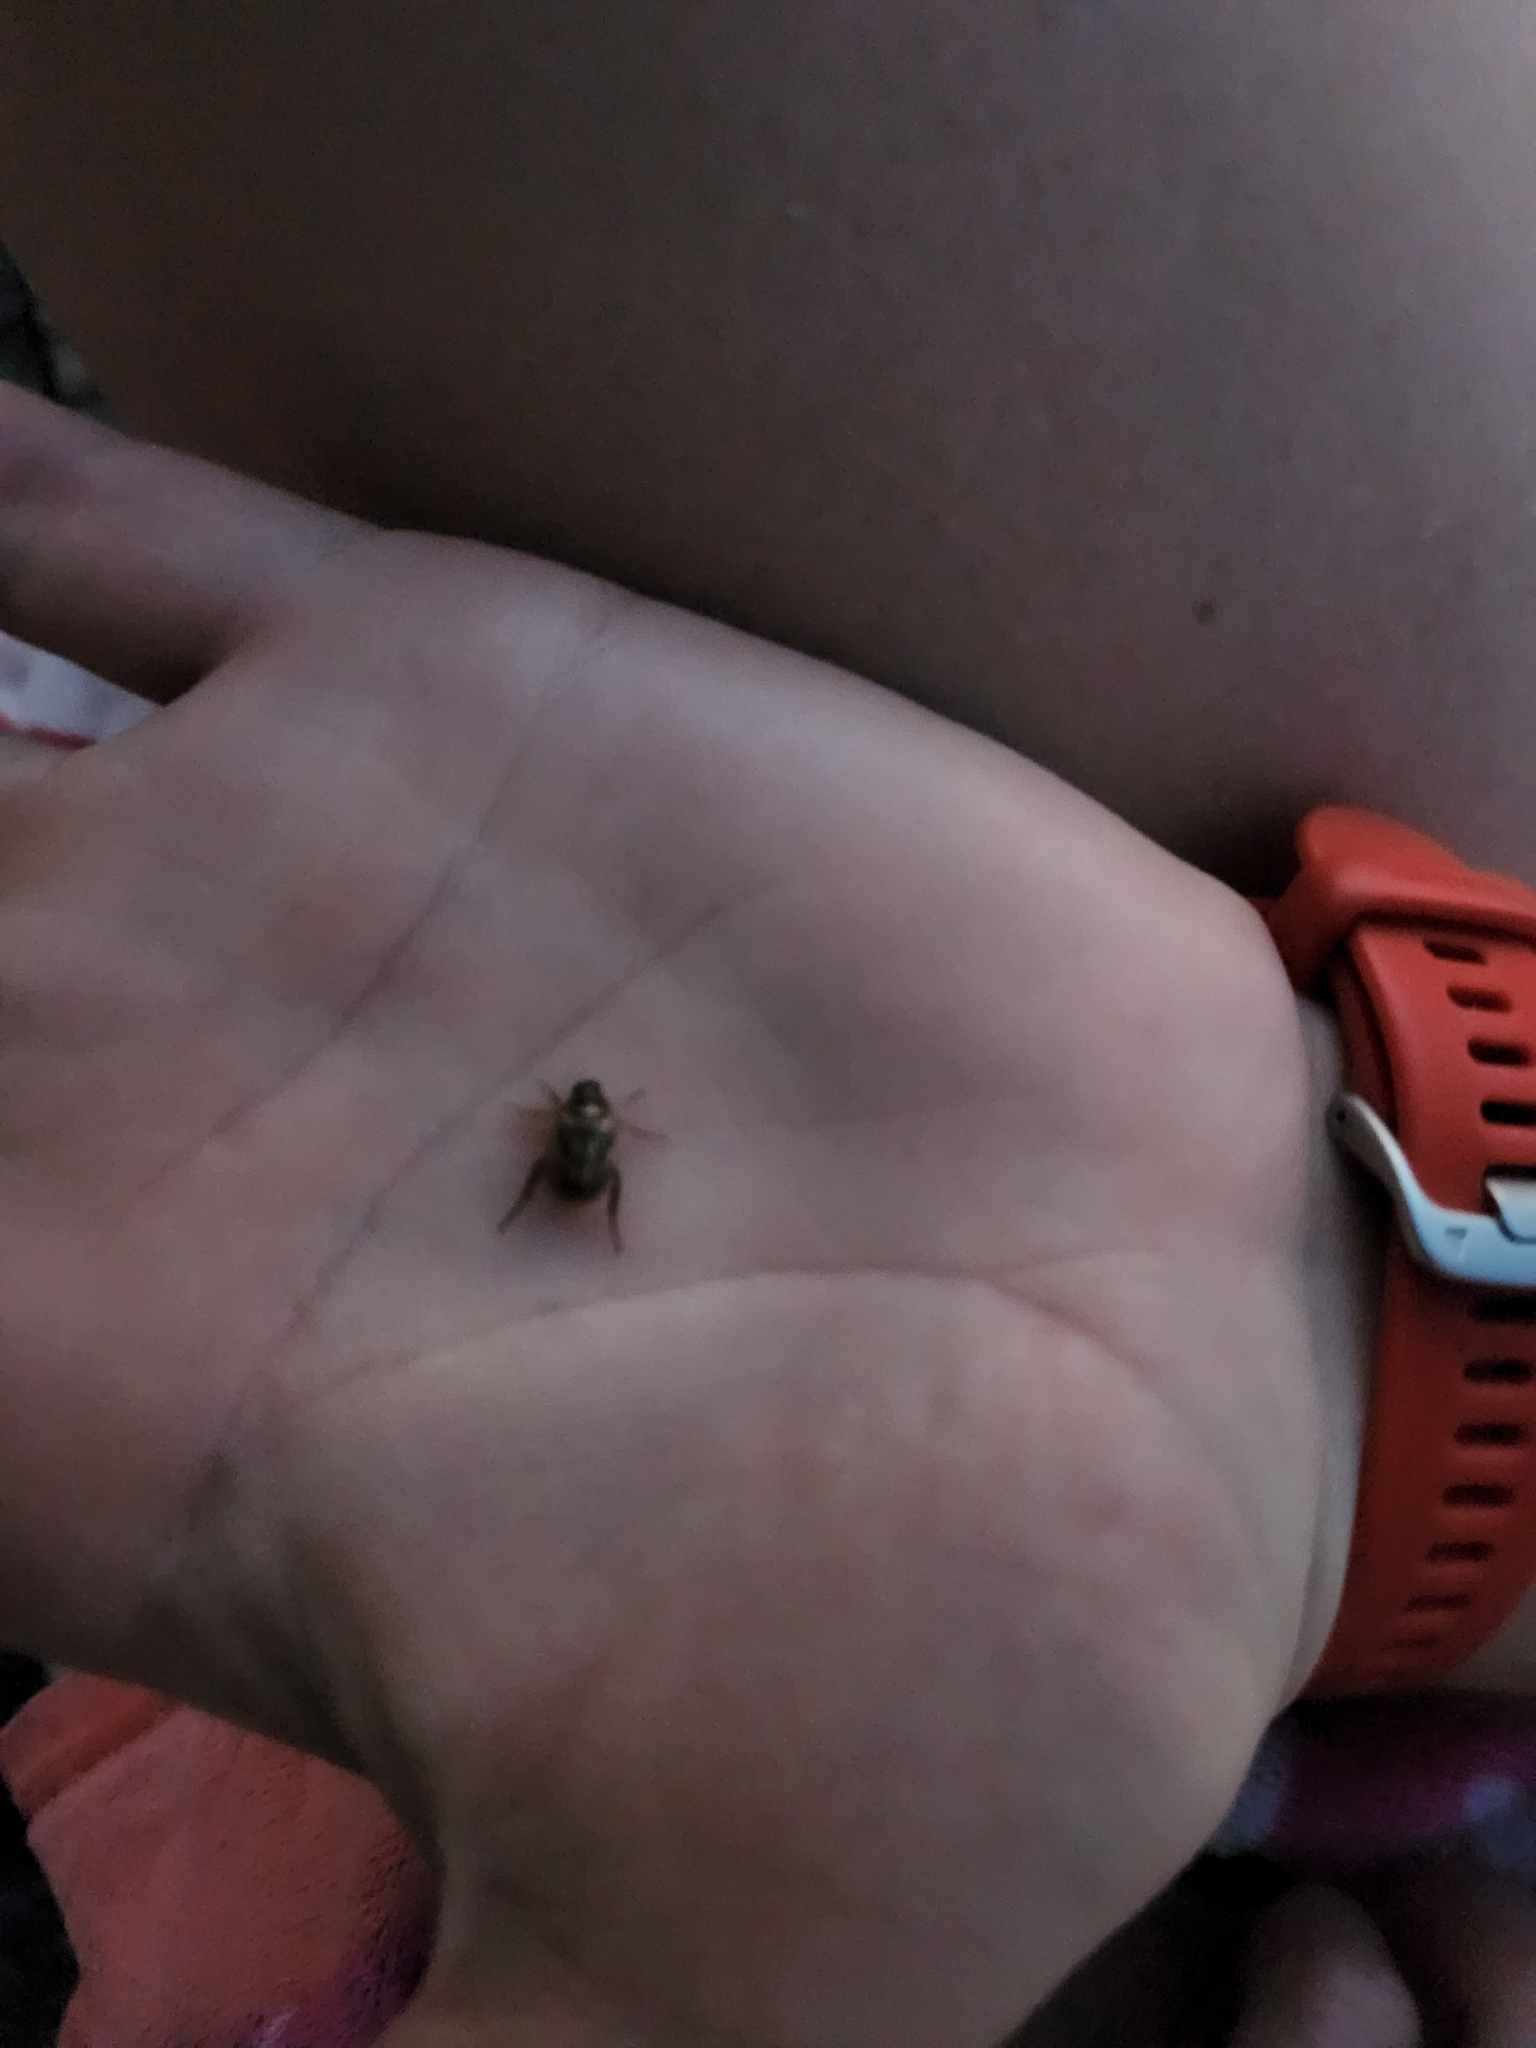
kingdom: Animalia
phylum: Arthropoda
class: Insecta
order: Coleoptera
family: Scarabaeidae
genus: Exomala
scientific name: Exomala orientalis
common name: Oriental beetle
